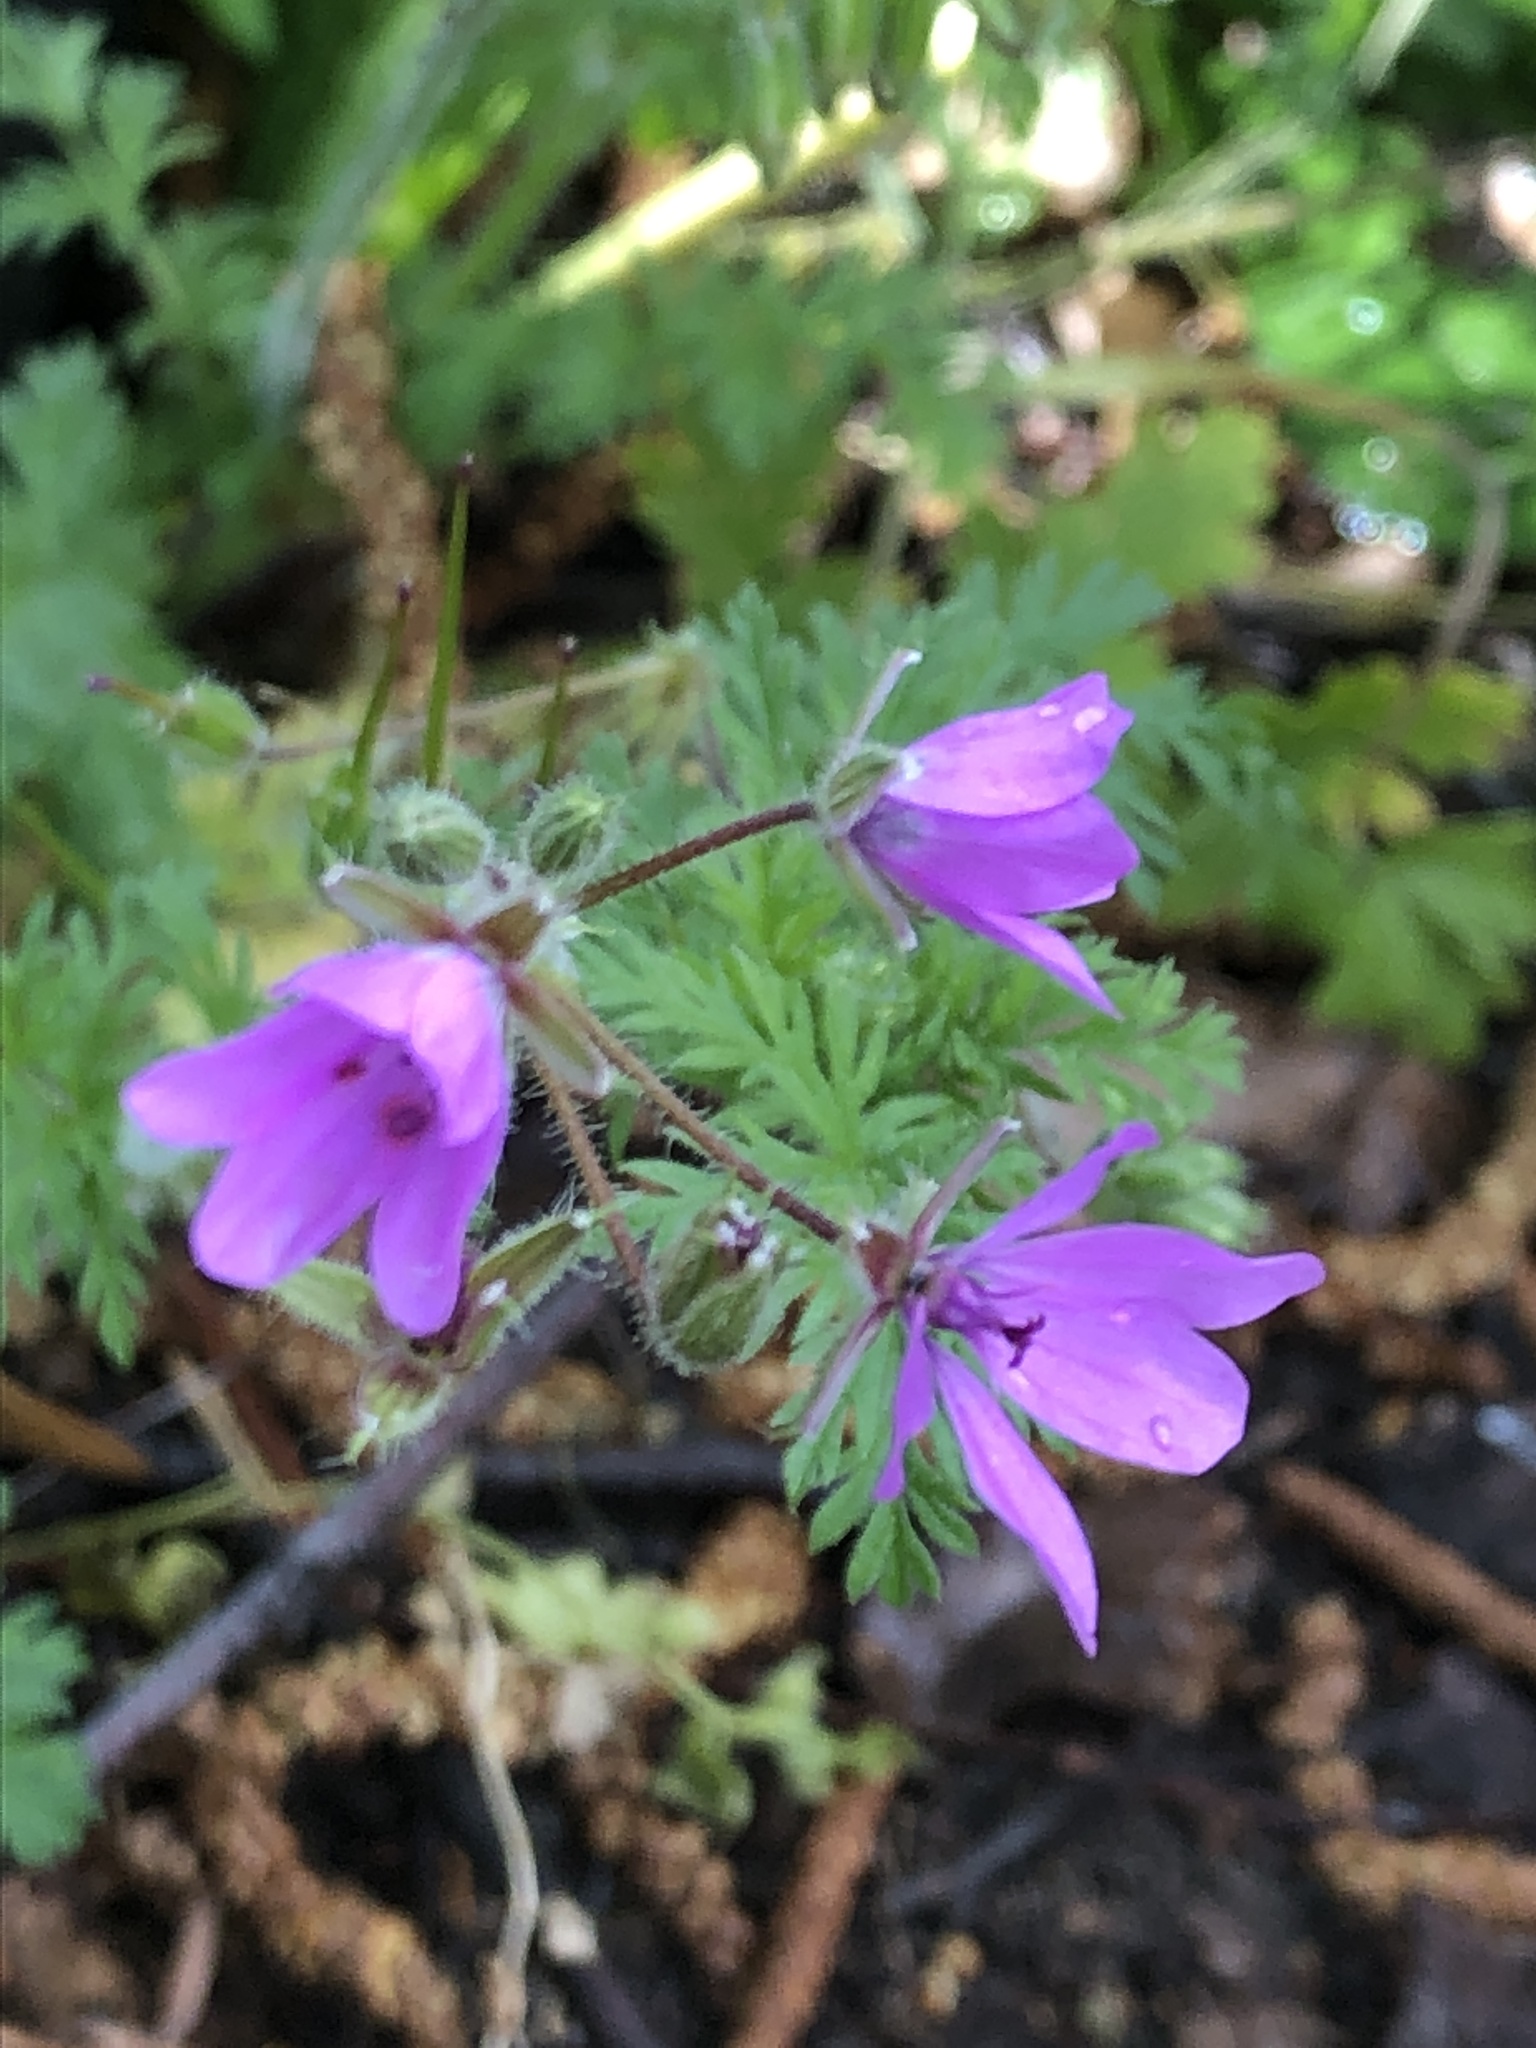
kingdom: Plantae
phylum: Tracheophyta
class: Magnoliopsida
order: Geraniales
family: Geraniaceae
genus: Erodium
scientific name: Erodium cicutarium
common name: Common stork's-bill
